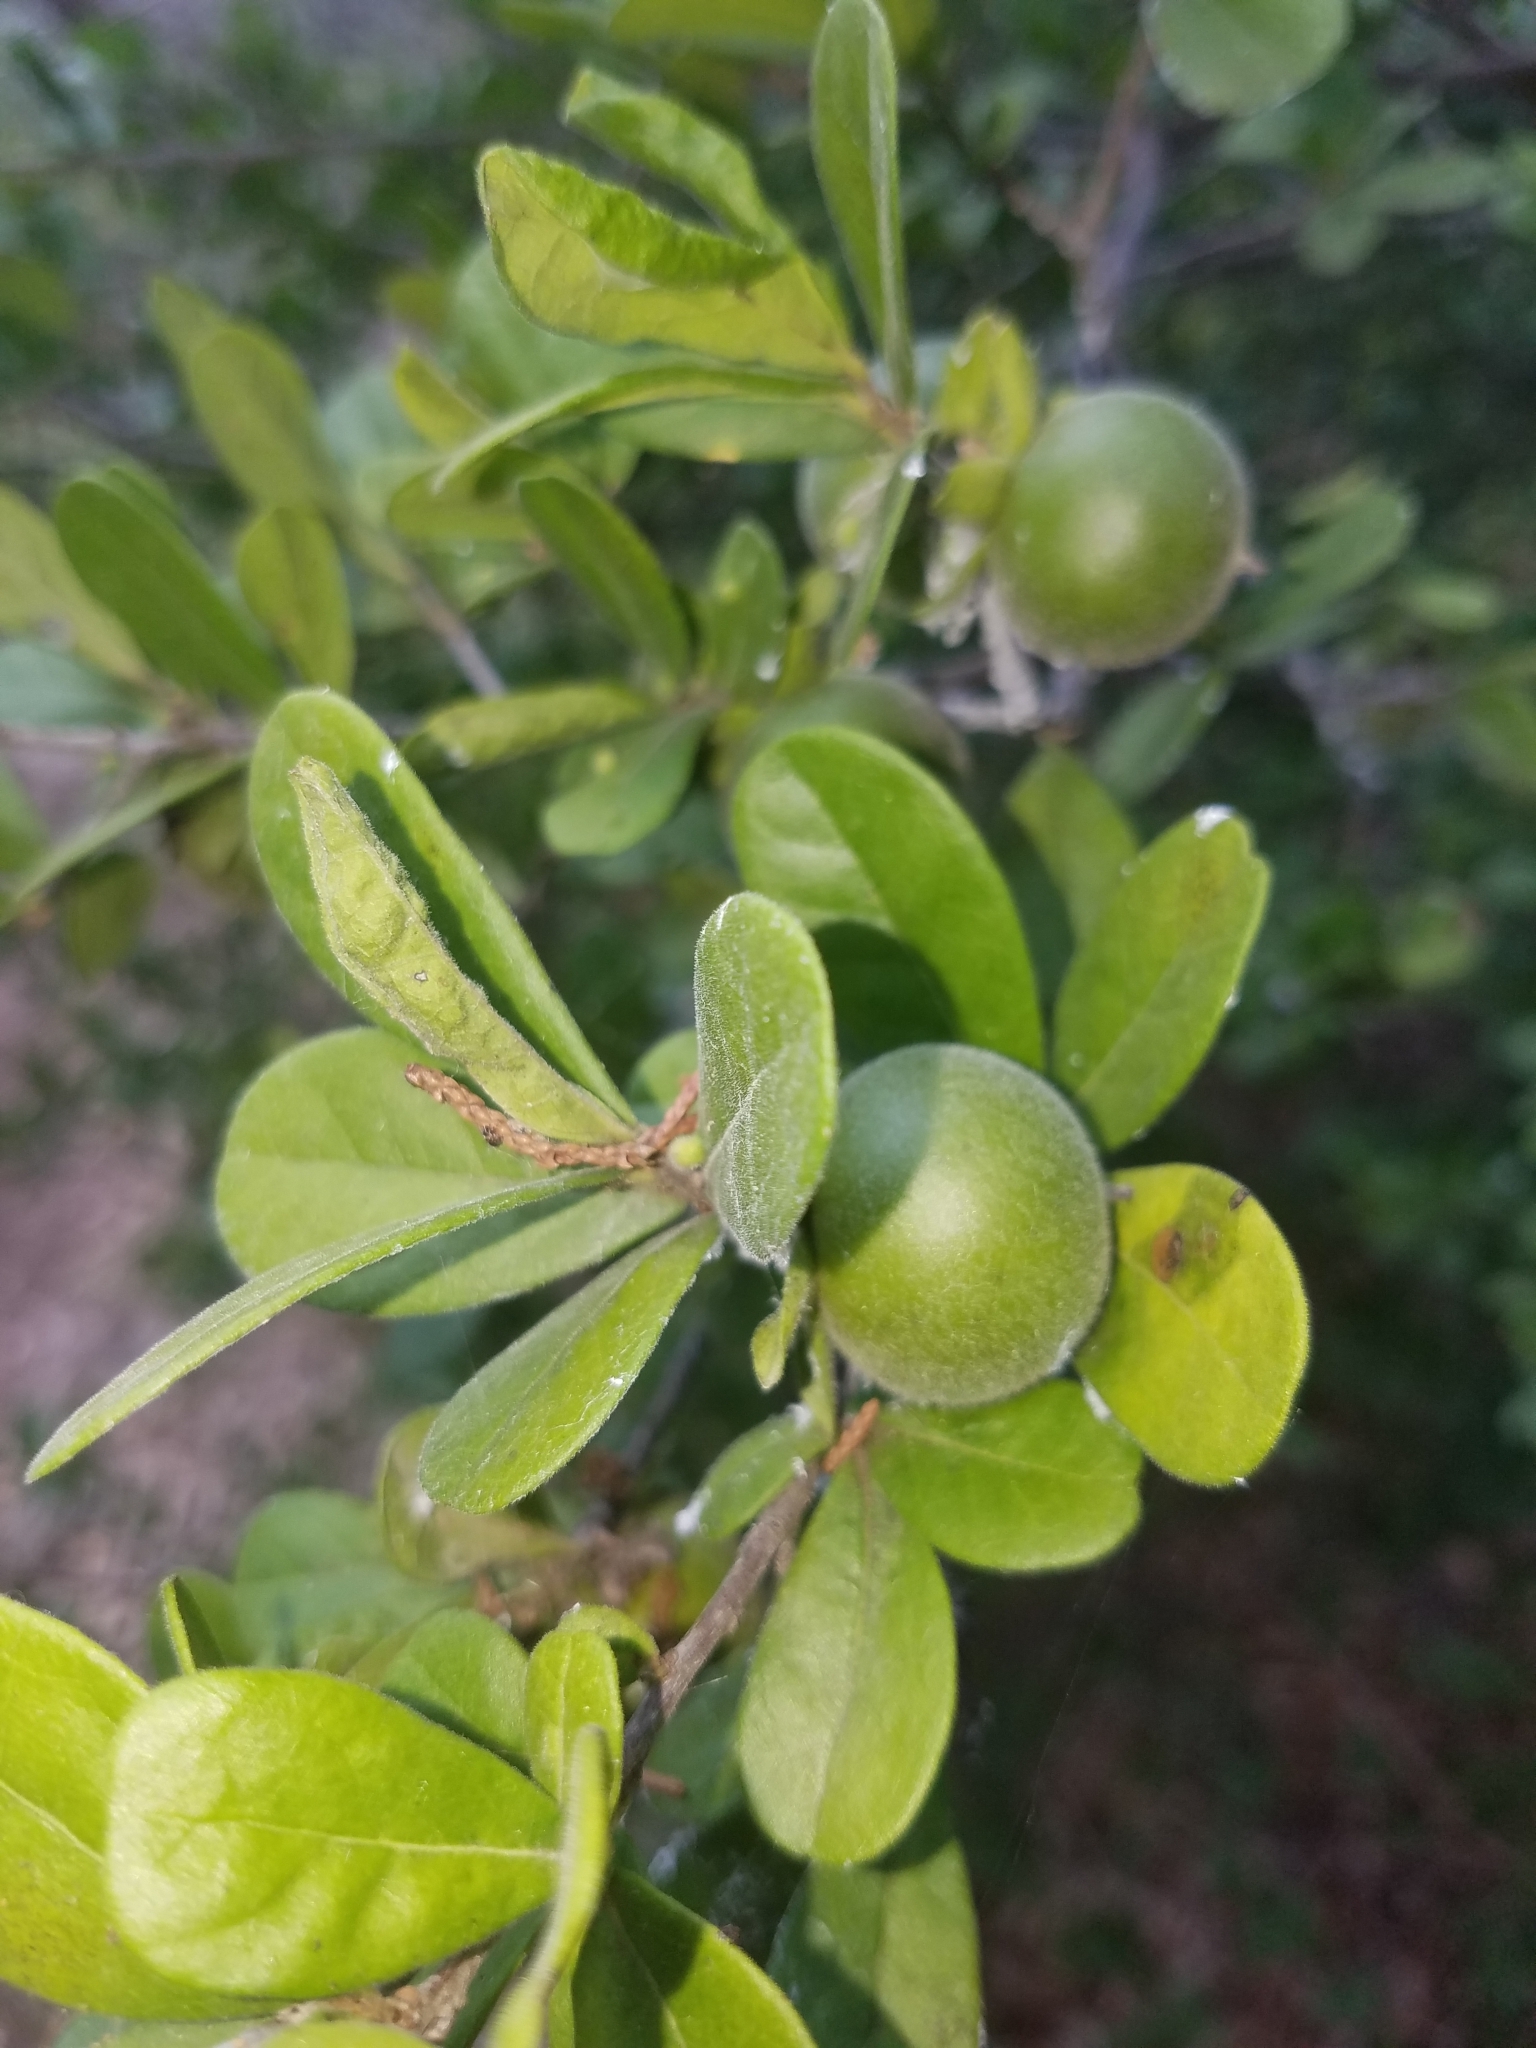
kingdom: Plantae
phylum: Tracheophyta
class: Magnoliopsida
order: Ericales
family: Ebenaceae
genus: Diospyros
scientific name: Diospyros texana
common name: Texas persimmon
